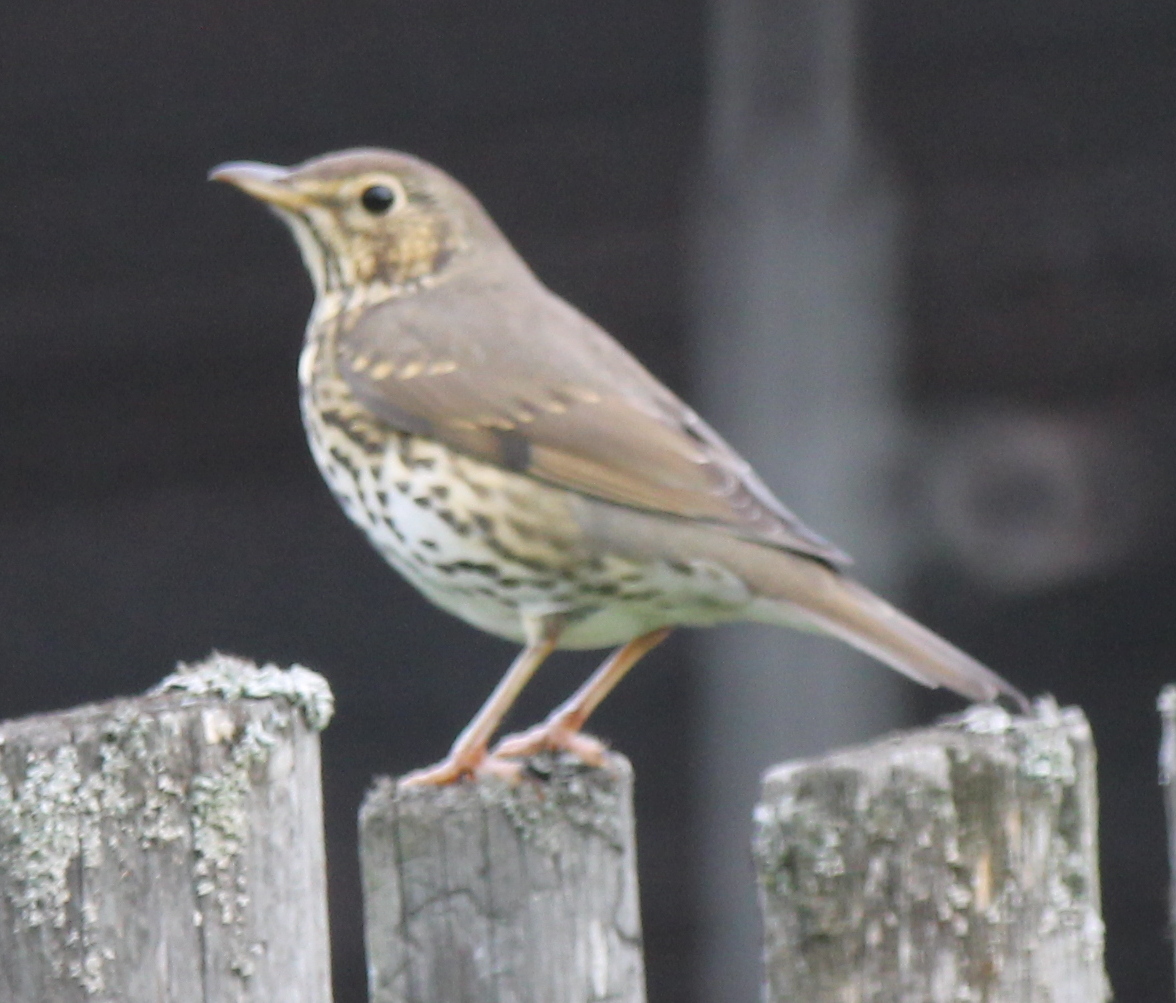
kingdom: Animalia
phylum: Chordata
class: Aves
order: Passeriformes
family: Turdidae
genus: Turdus
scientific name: Turdus philomelos
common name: Song thrush
